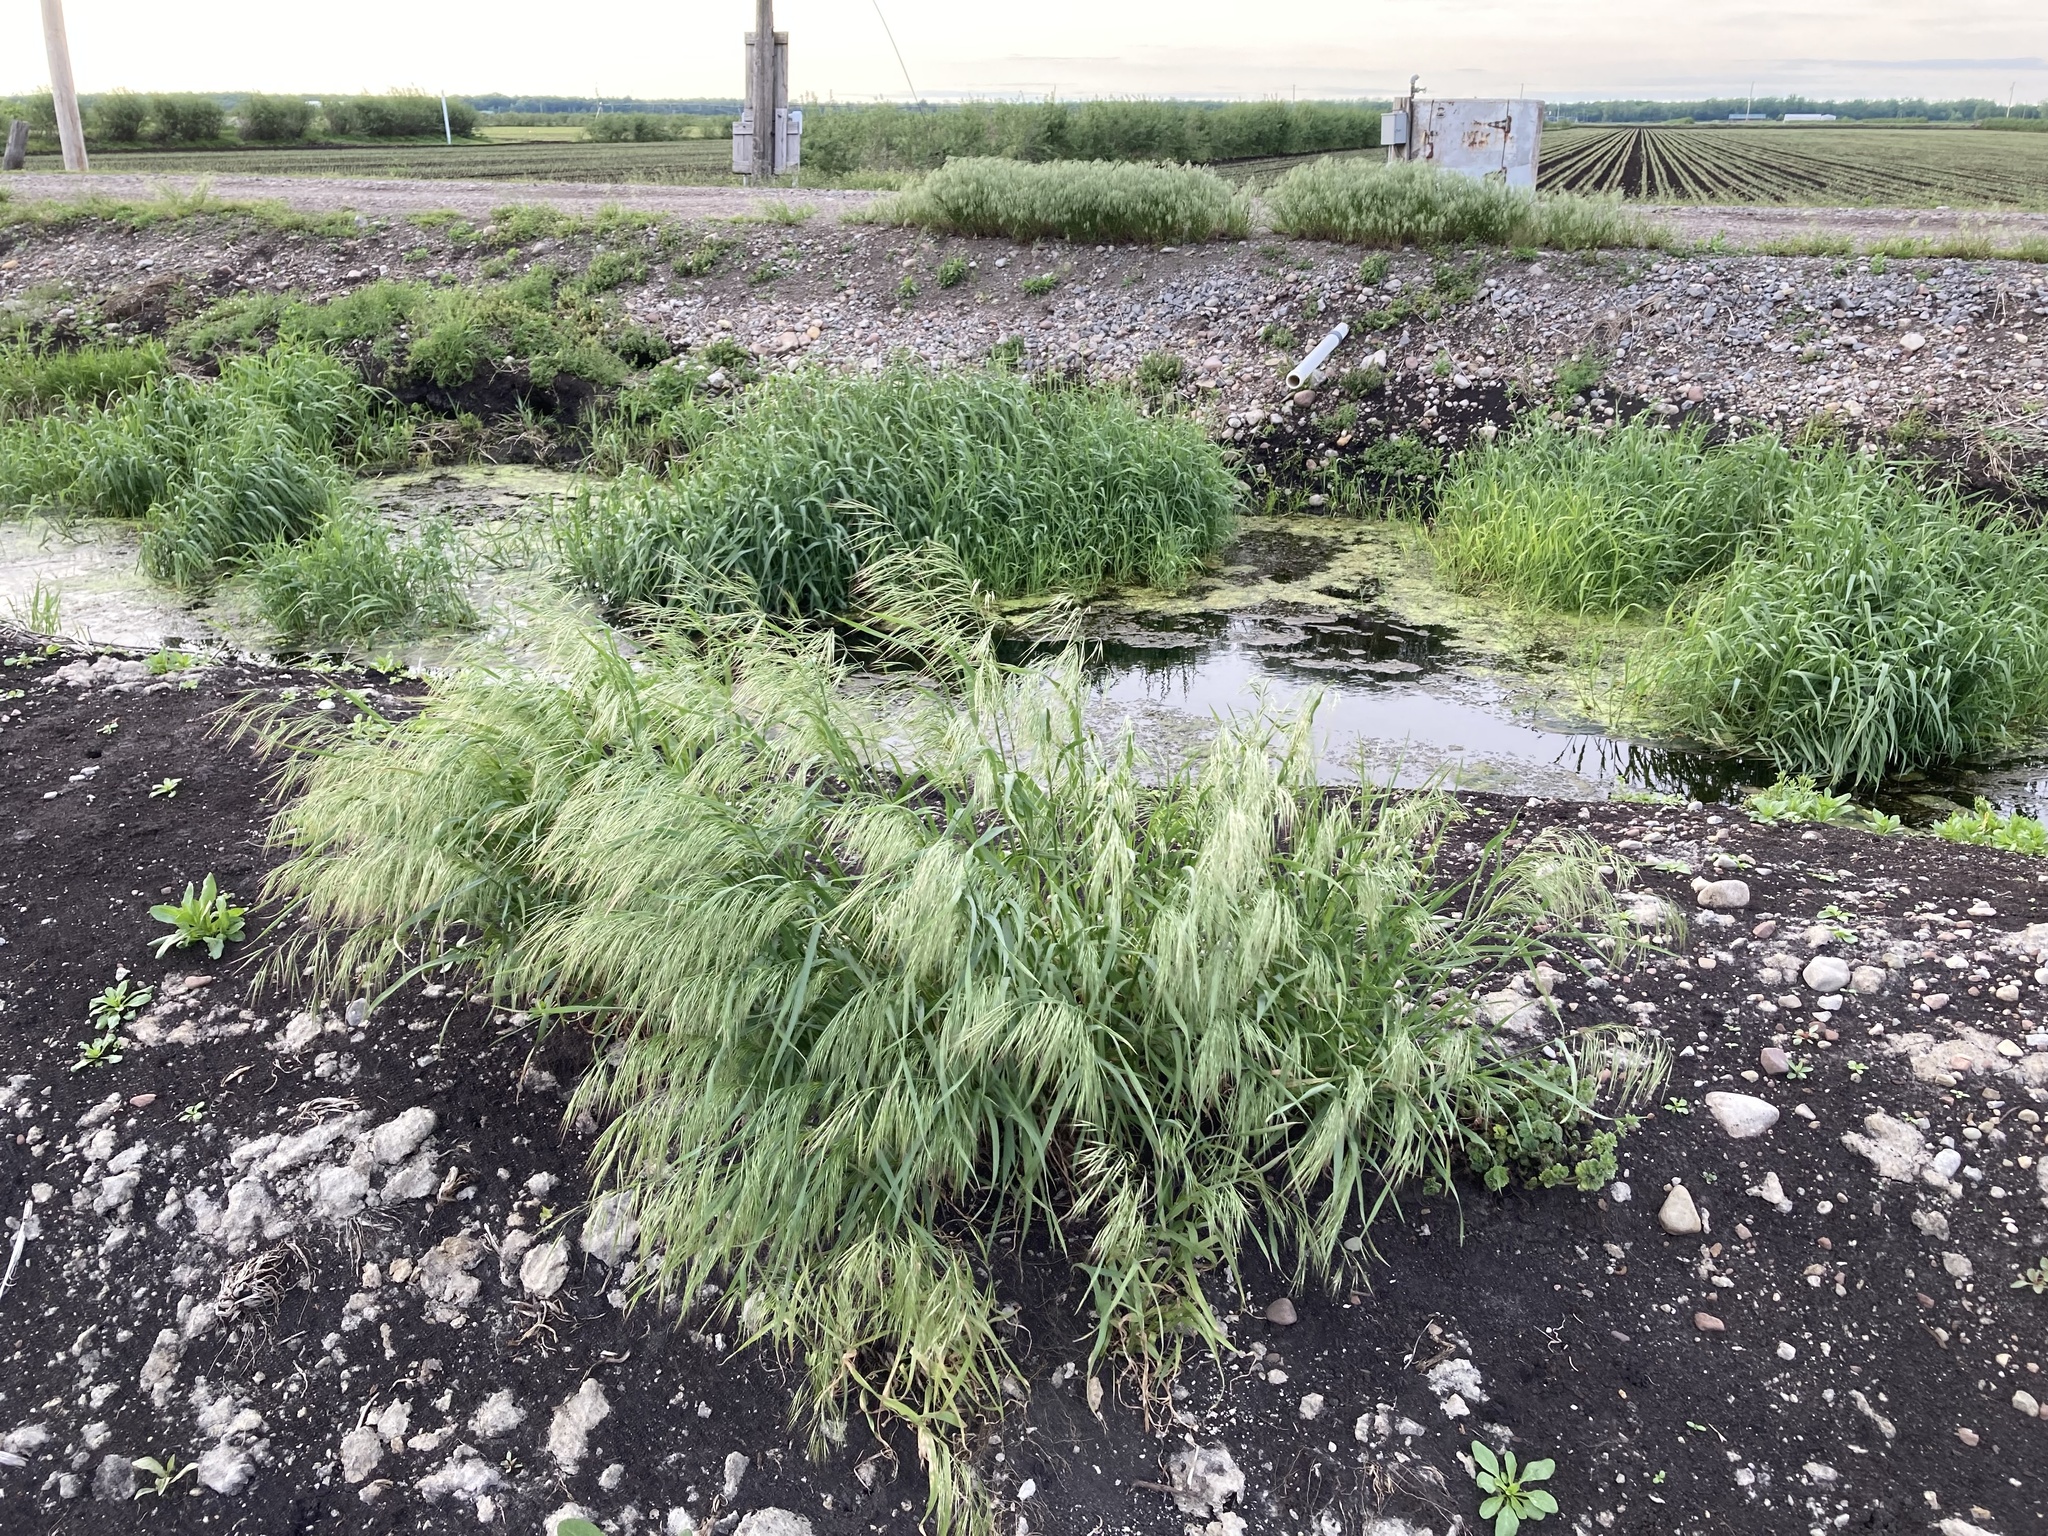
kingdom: Plantae
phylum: Tracheophyta
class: Liliopsida
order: Poales
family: Poaceae
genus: Bromus
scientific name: Bromus tectorum
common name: Cheatgrass
